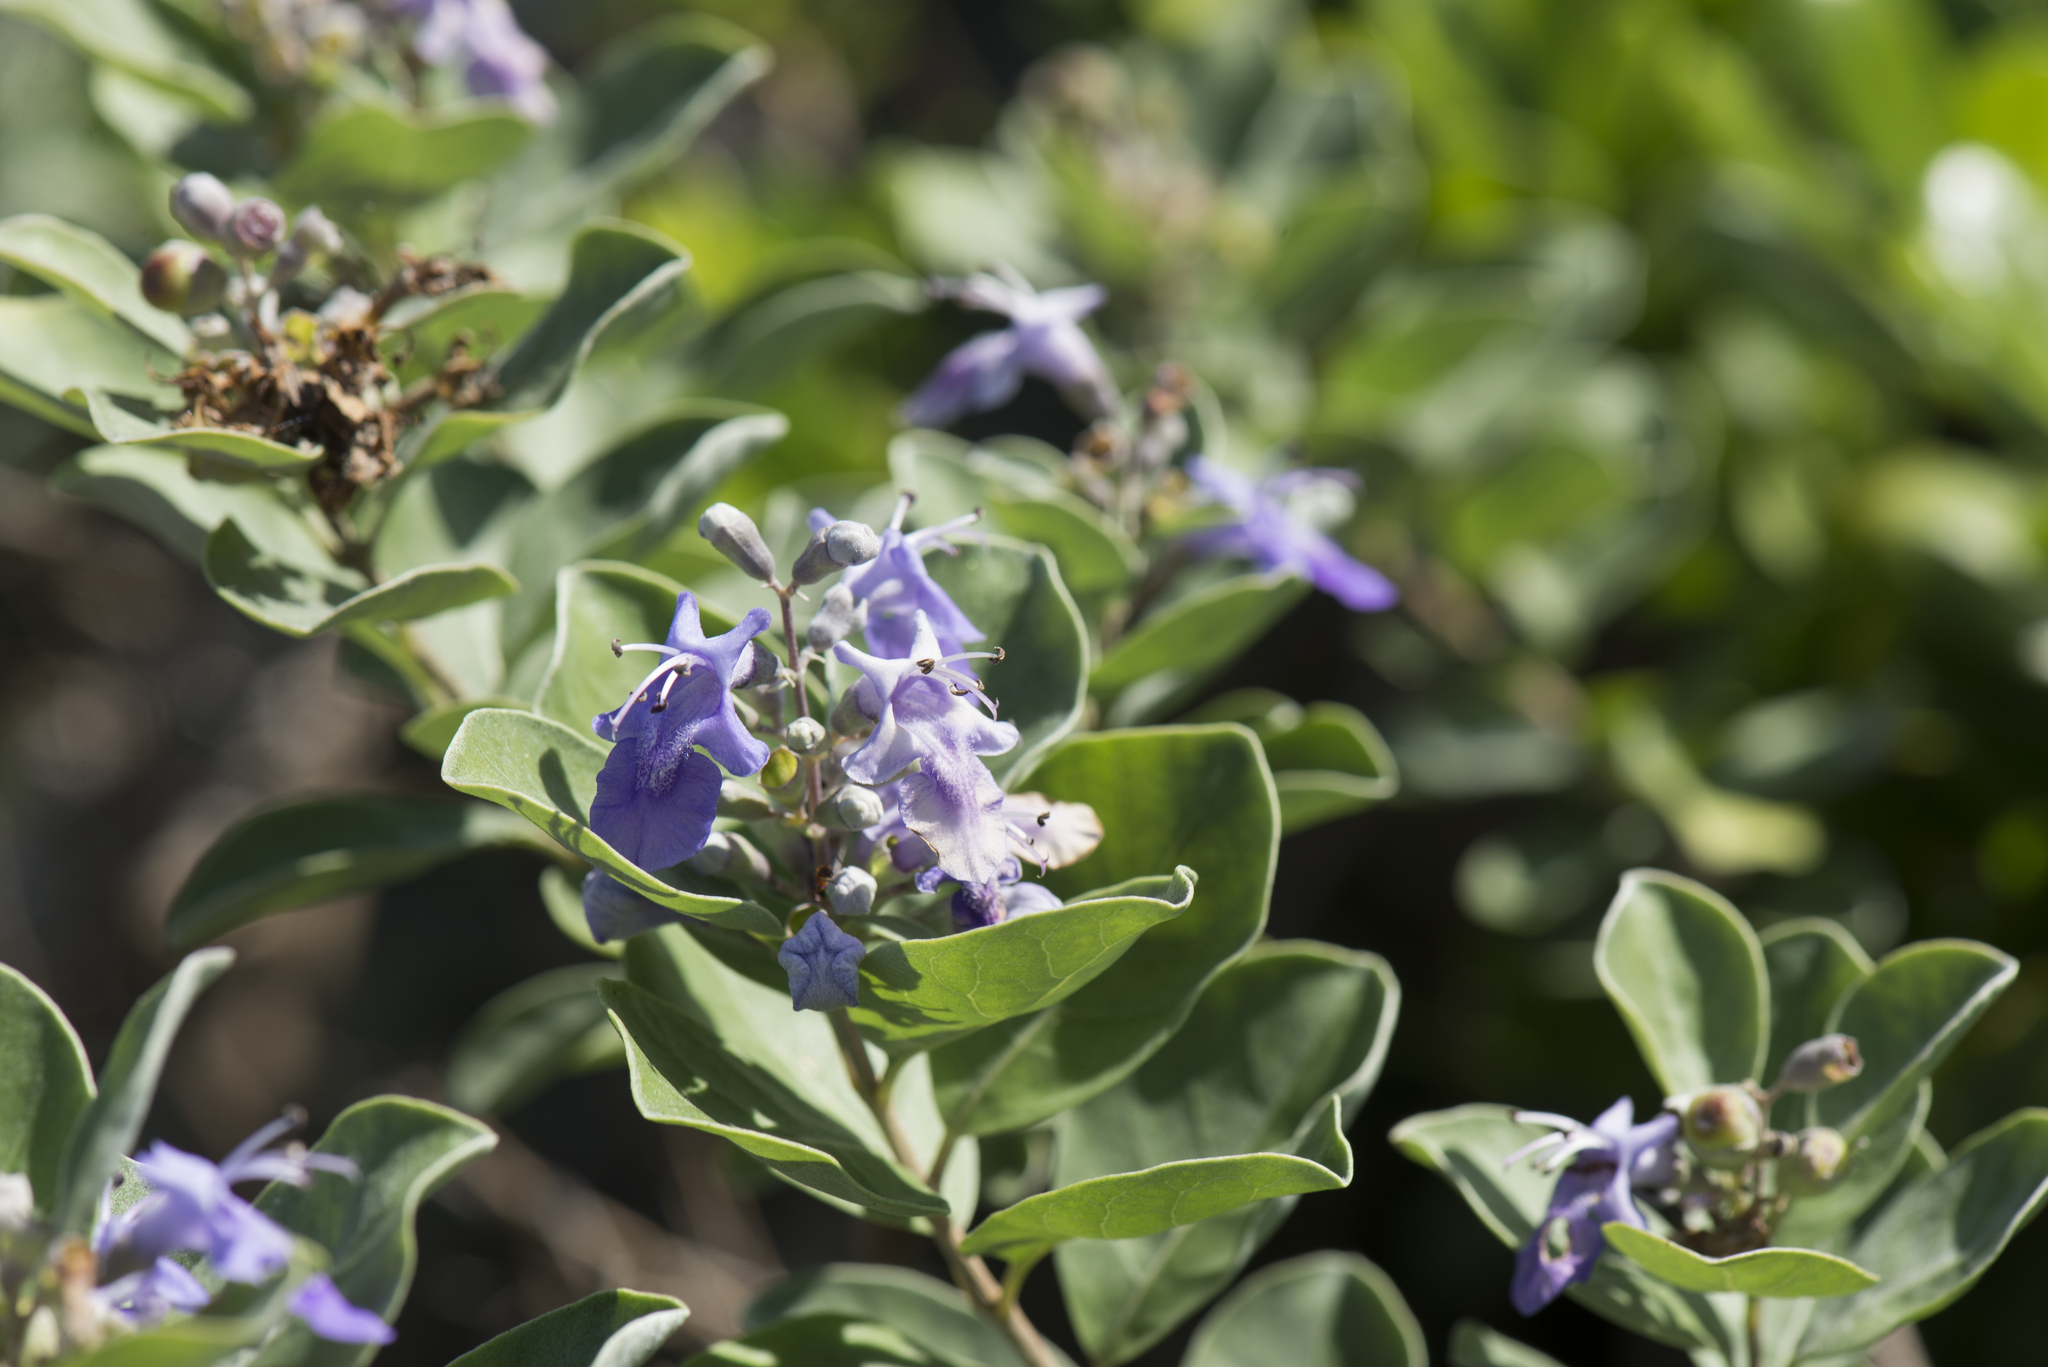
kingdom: Plantae
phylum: Tracheophyta
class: Magnoliopsida
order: Lamiales
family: Lamiaceae
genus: Vitex
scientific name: Vitex rotundifolia
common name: Beach vitex
